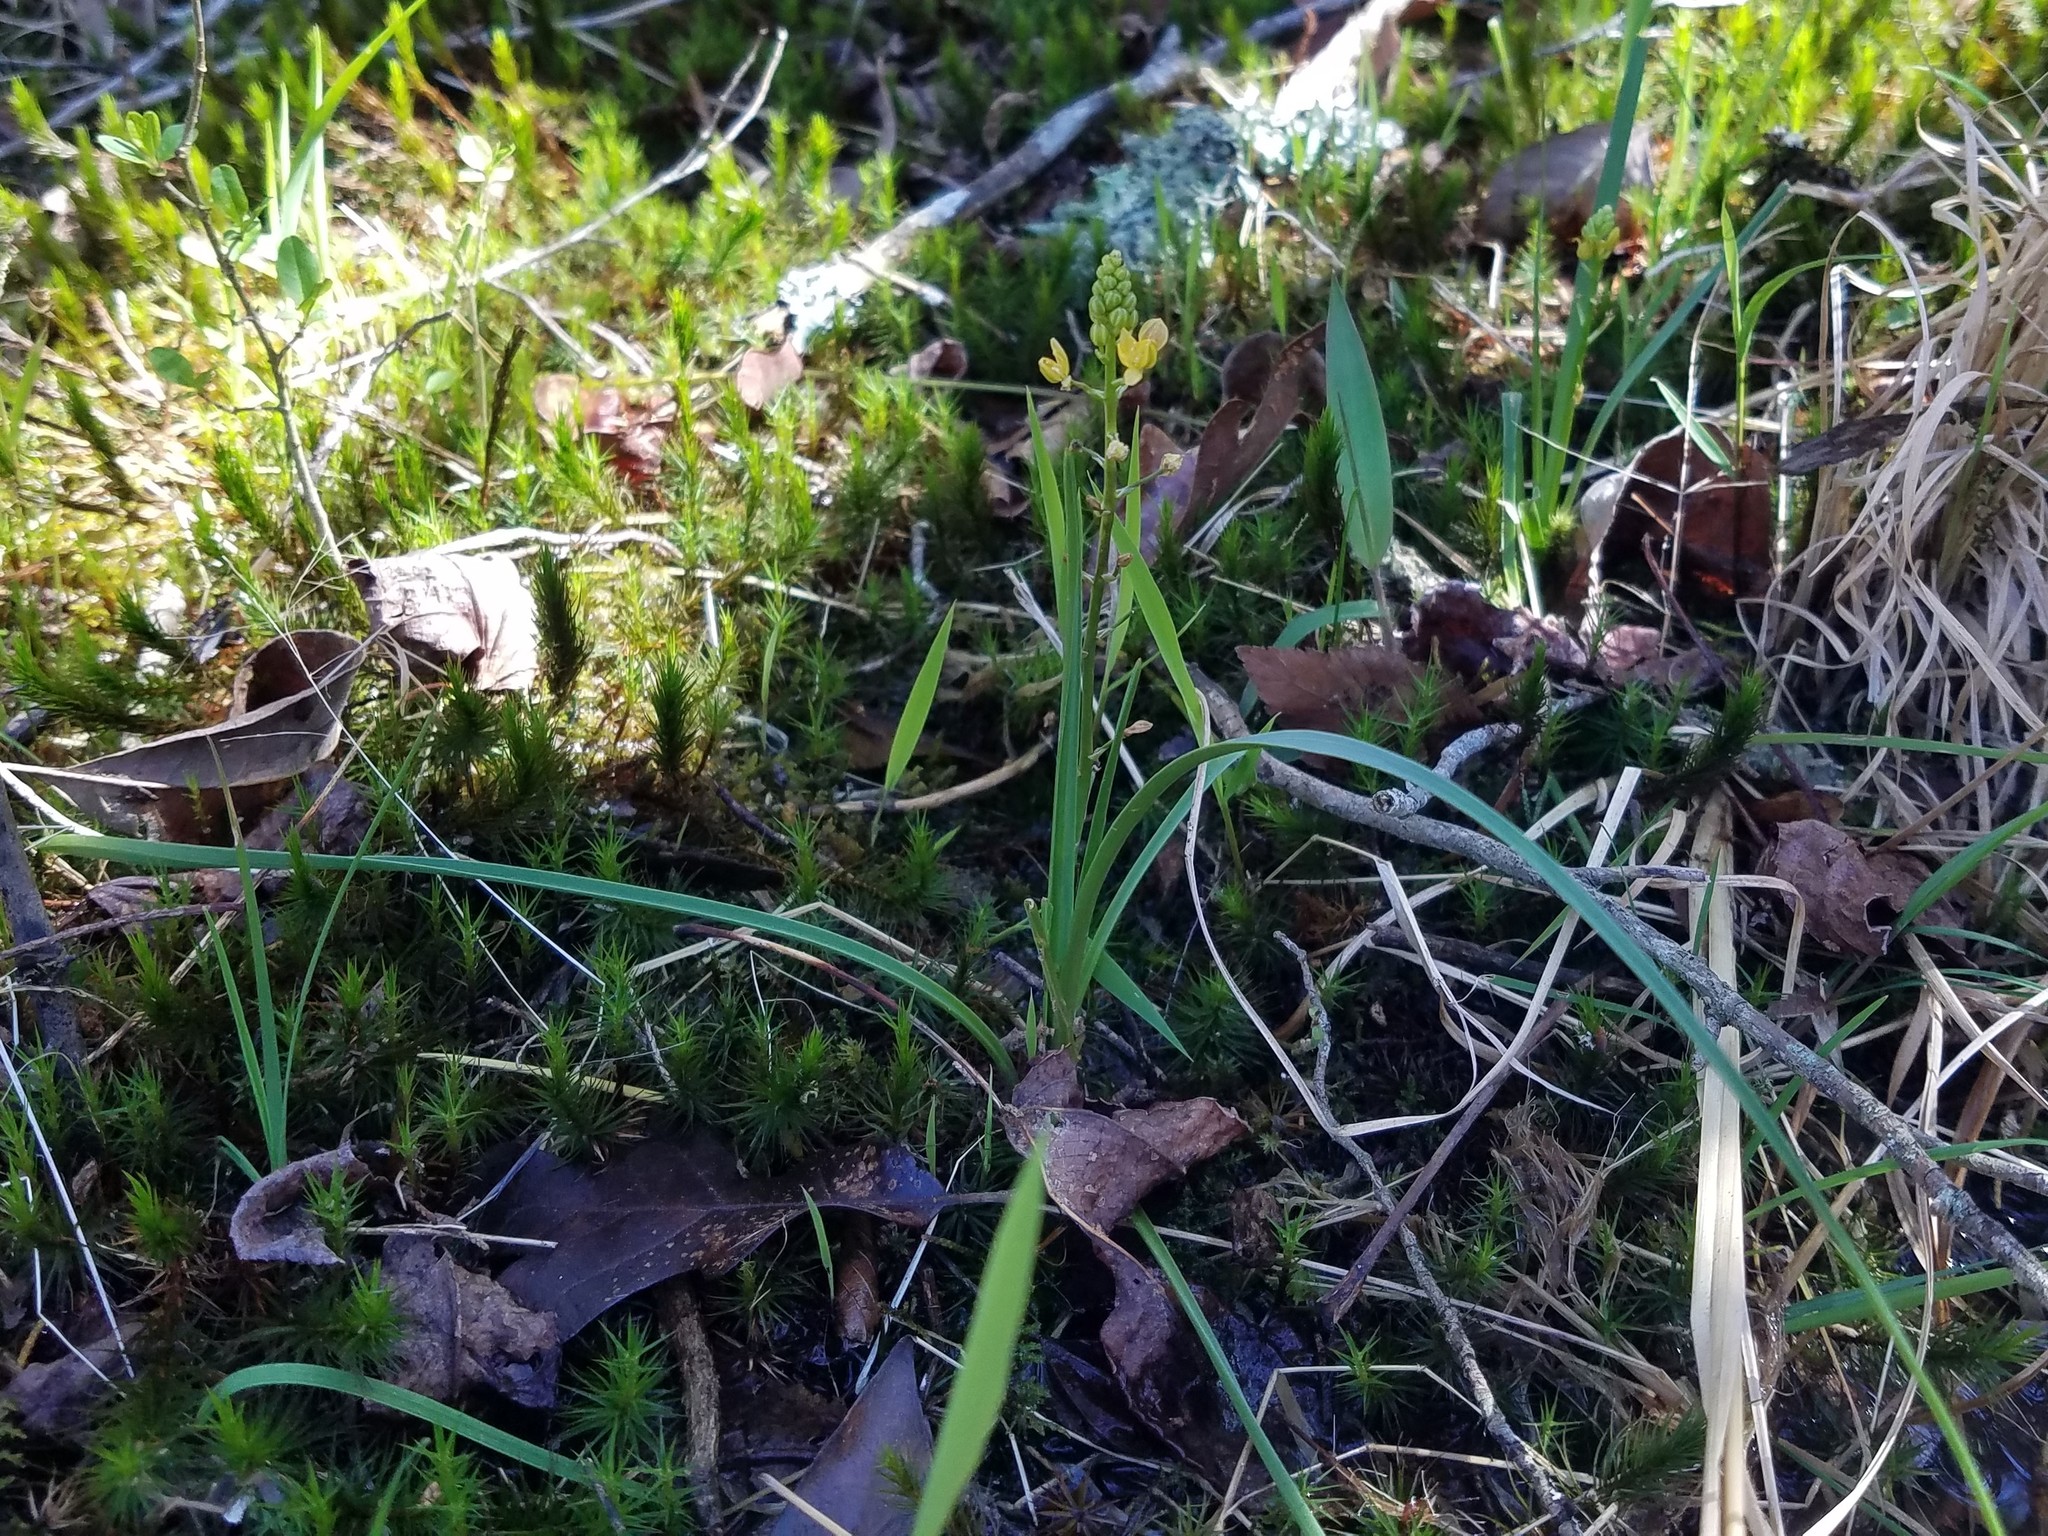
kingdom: Plantae
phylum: Tracheophyta
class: Liliopsida
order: Asparagales
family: Asparagaceae
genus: Schoenolirion
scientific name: Schoenolirion croceum
